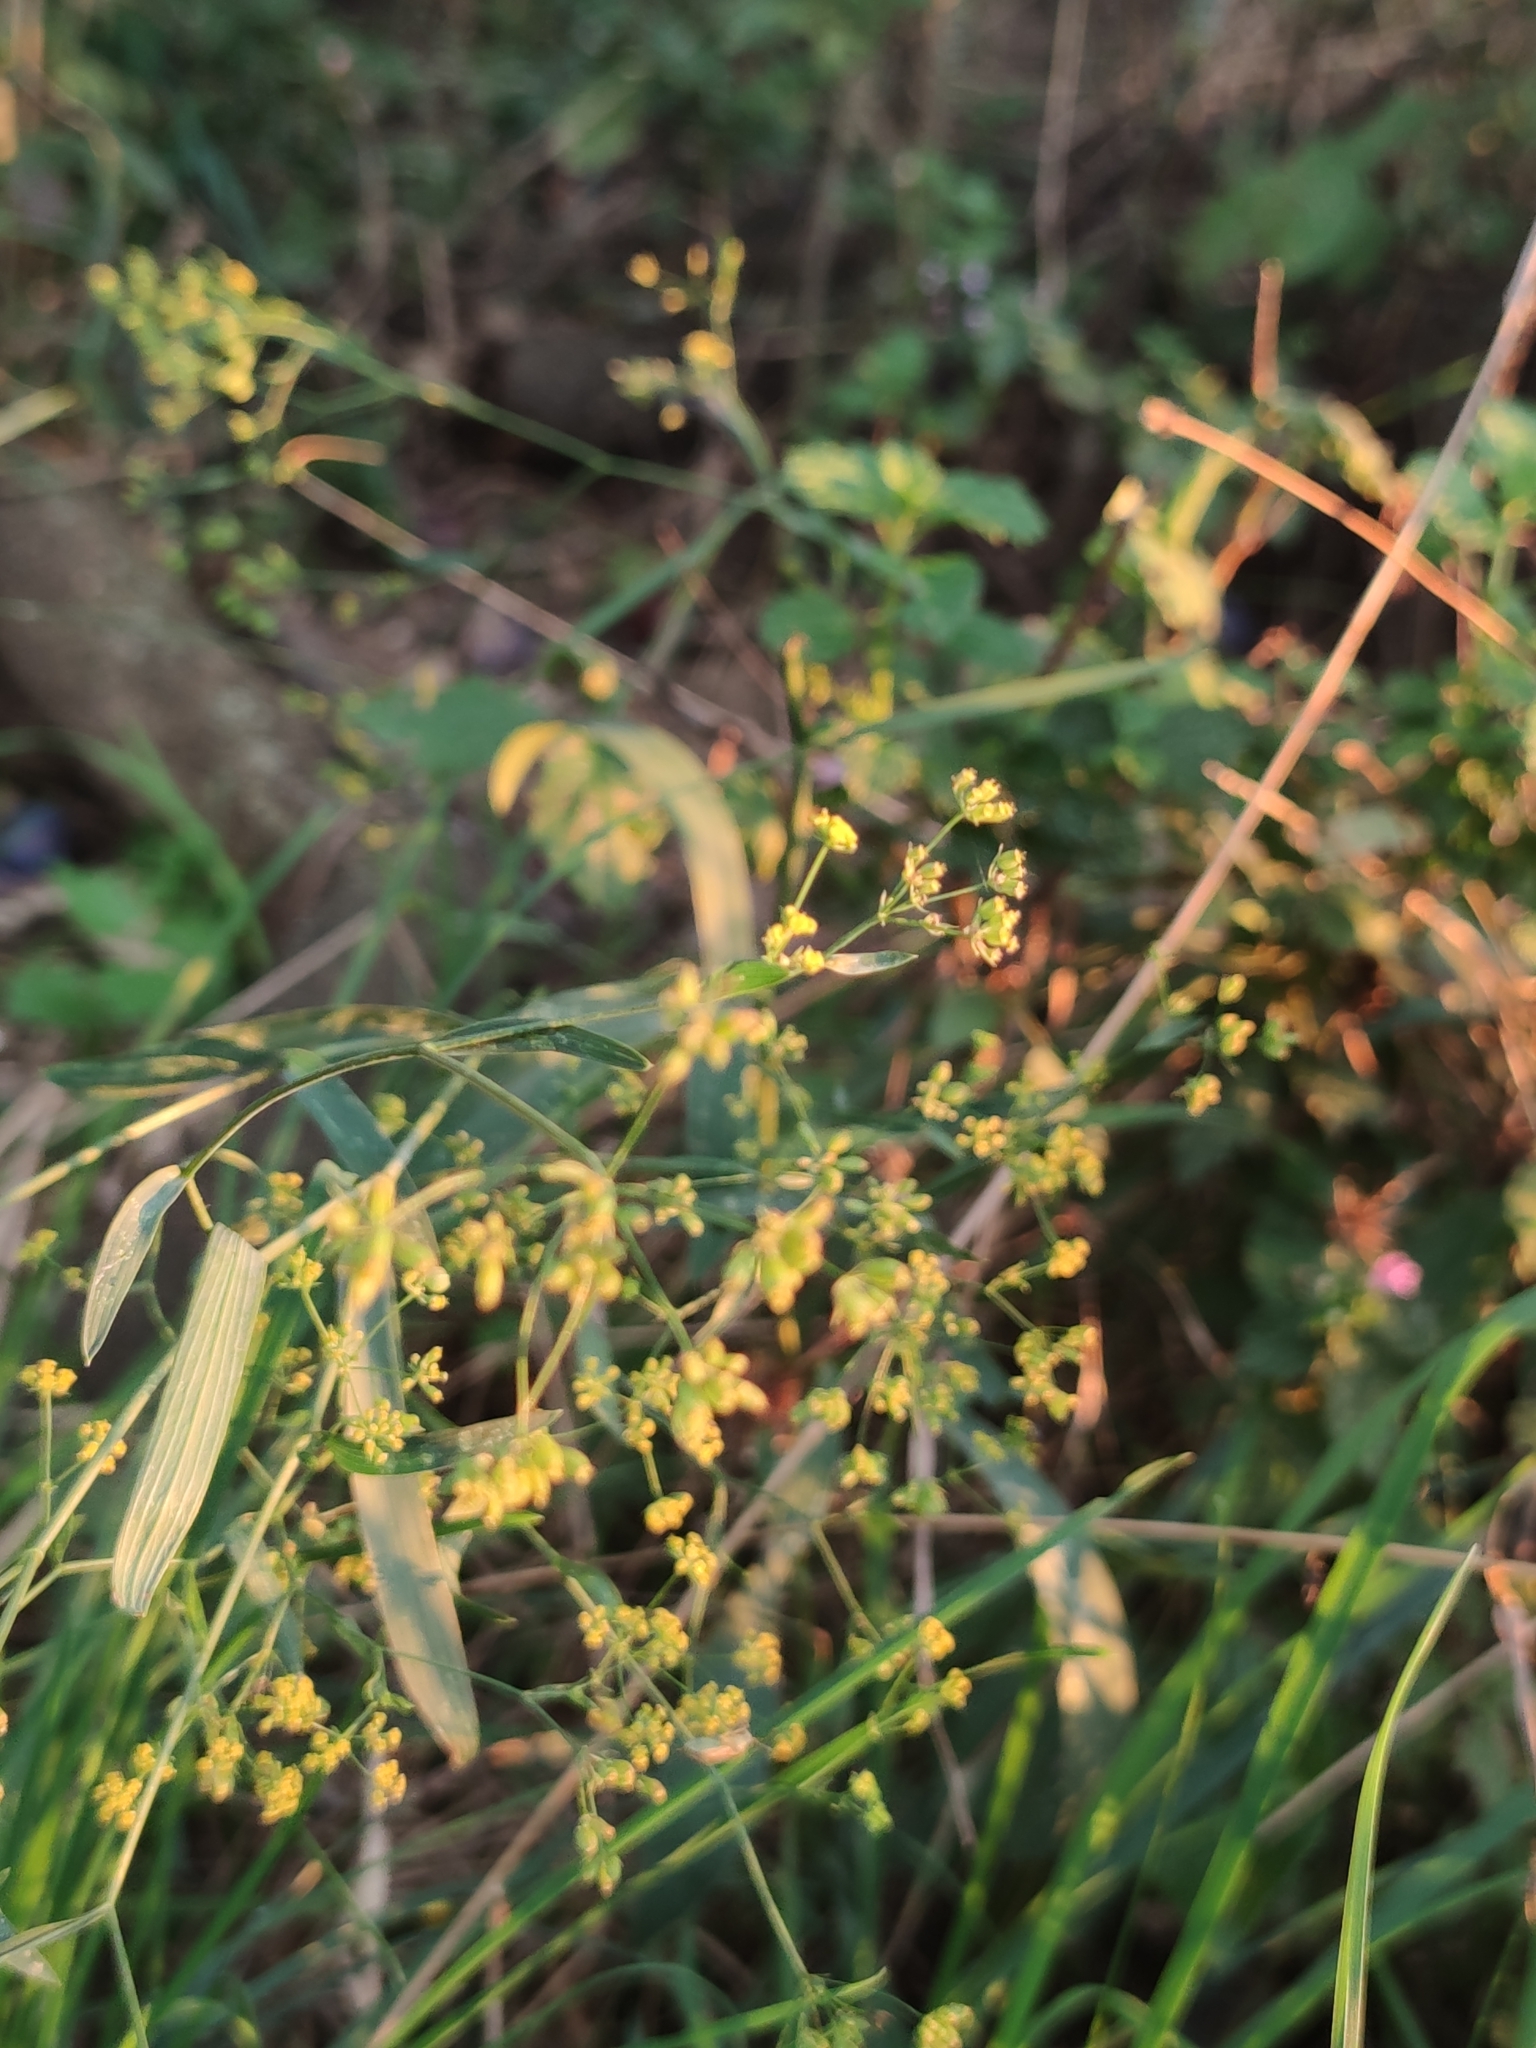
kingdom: Plantae
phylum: Tracheophyta
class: Magnoliopsida
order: Apiales
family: Apiaceae
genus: Bupleurum
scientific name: Bupleurum falcatum
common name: Sickle-leaved hare's-ear
